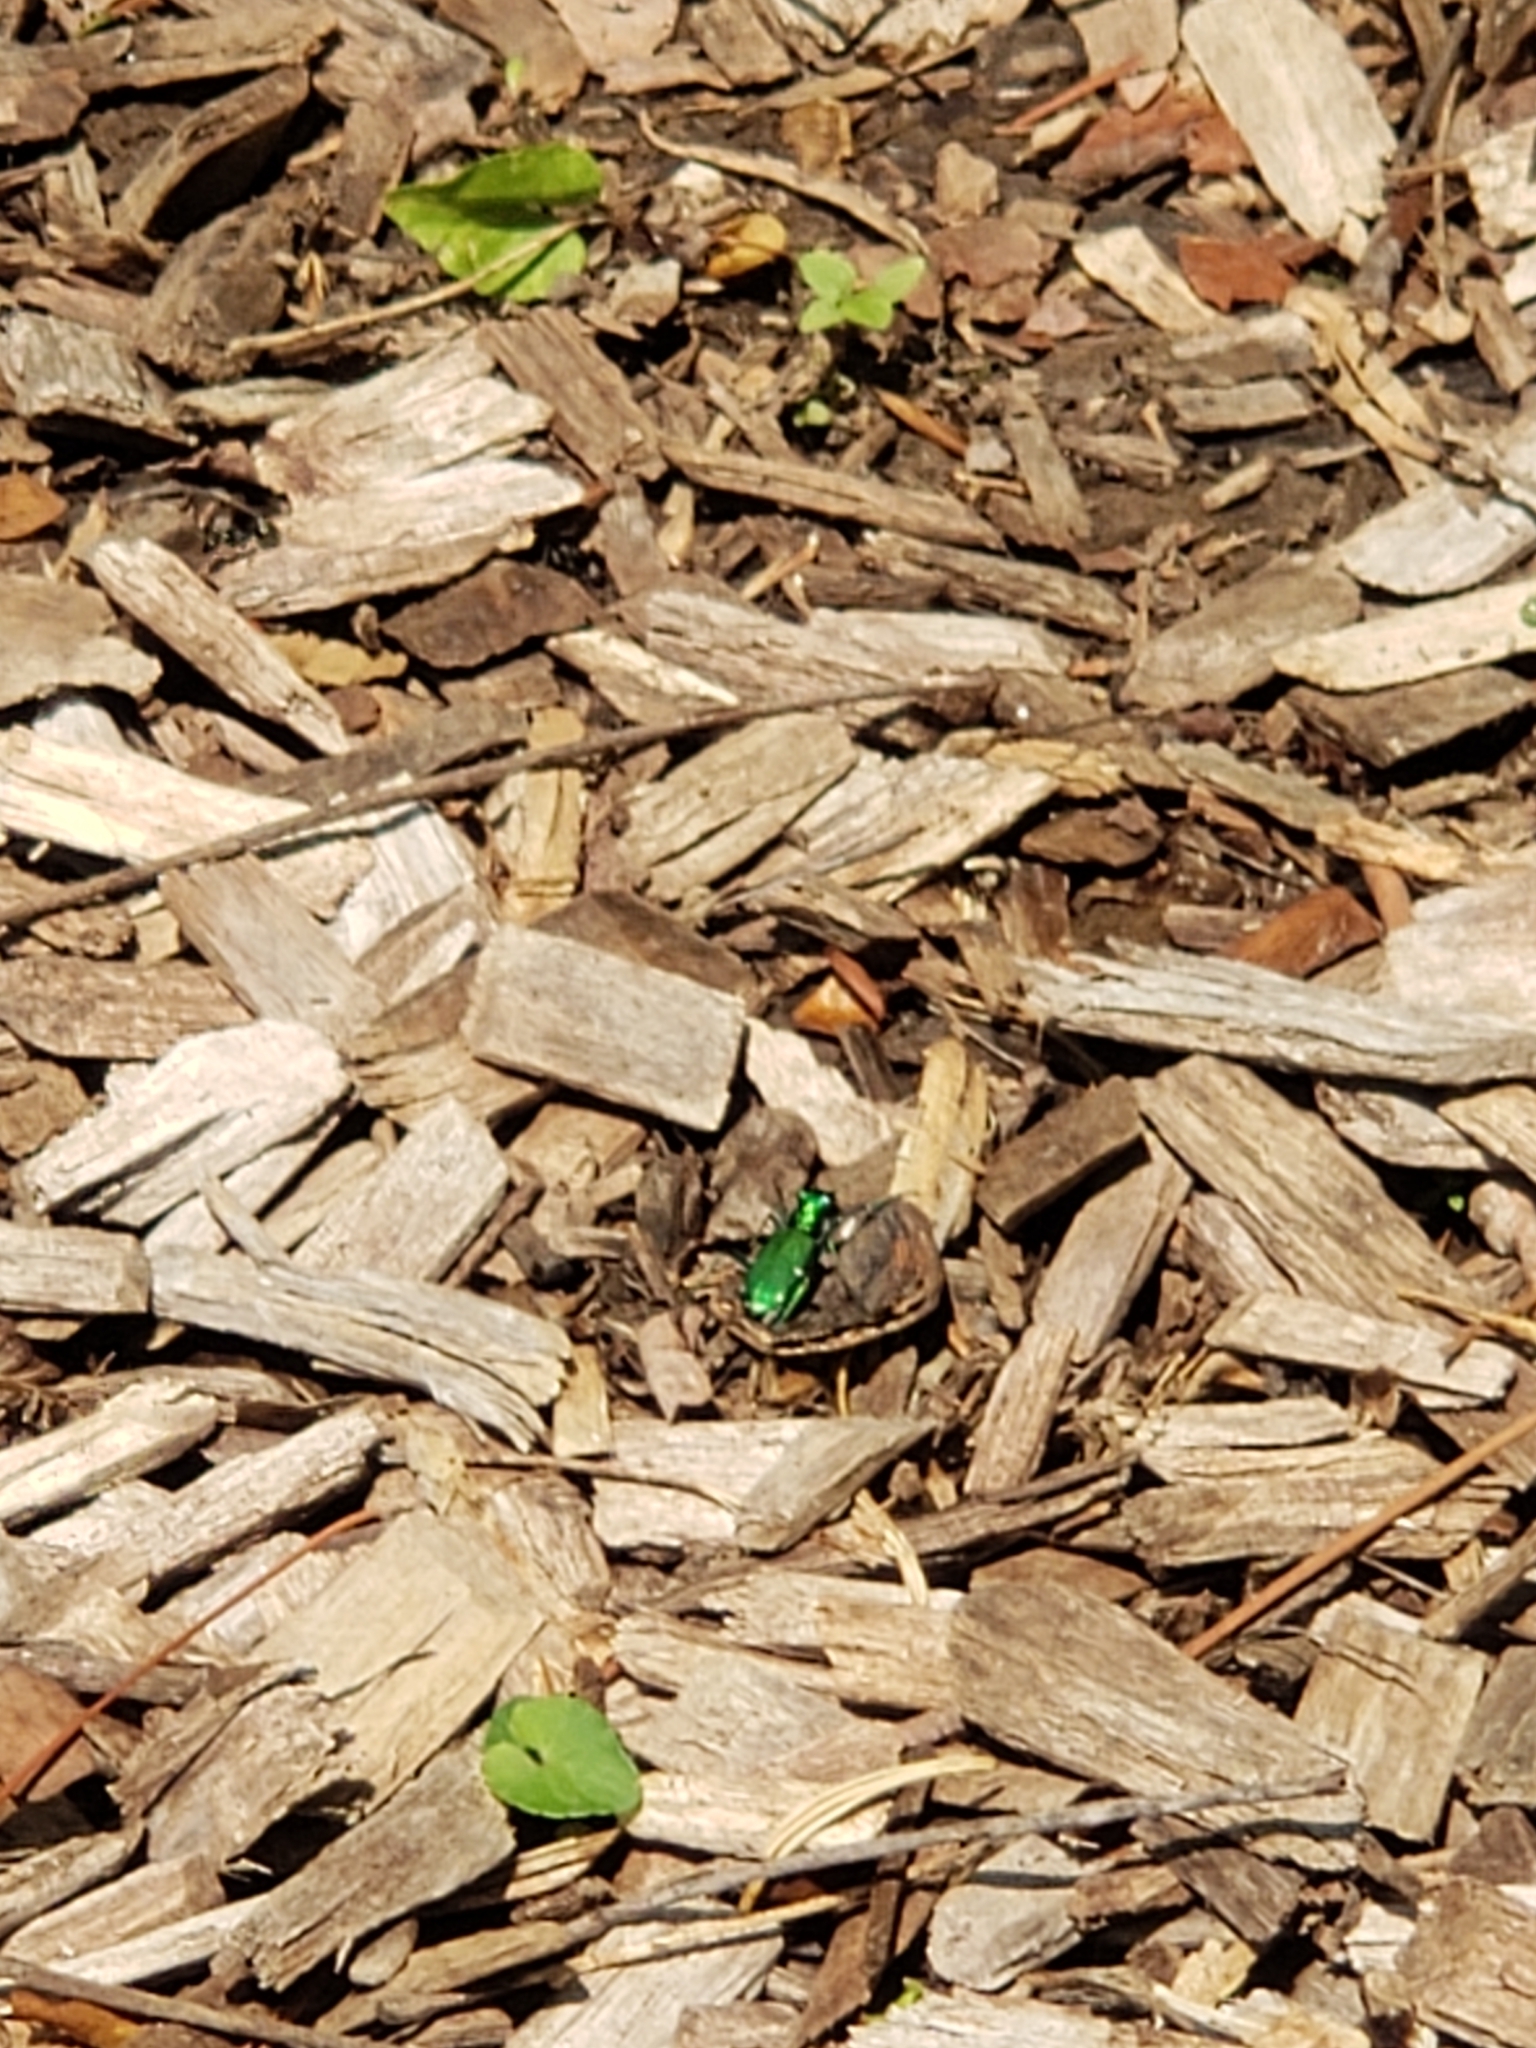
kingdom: Animalia
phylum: Arthropoda
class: Insecta
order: Coleoptera
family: Carabidae
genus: Cicindela
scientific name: Cicindela sexguttata
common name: Six-spotted tiger beetle
